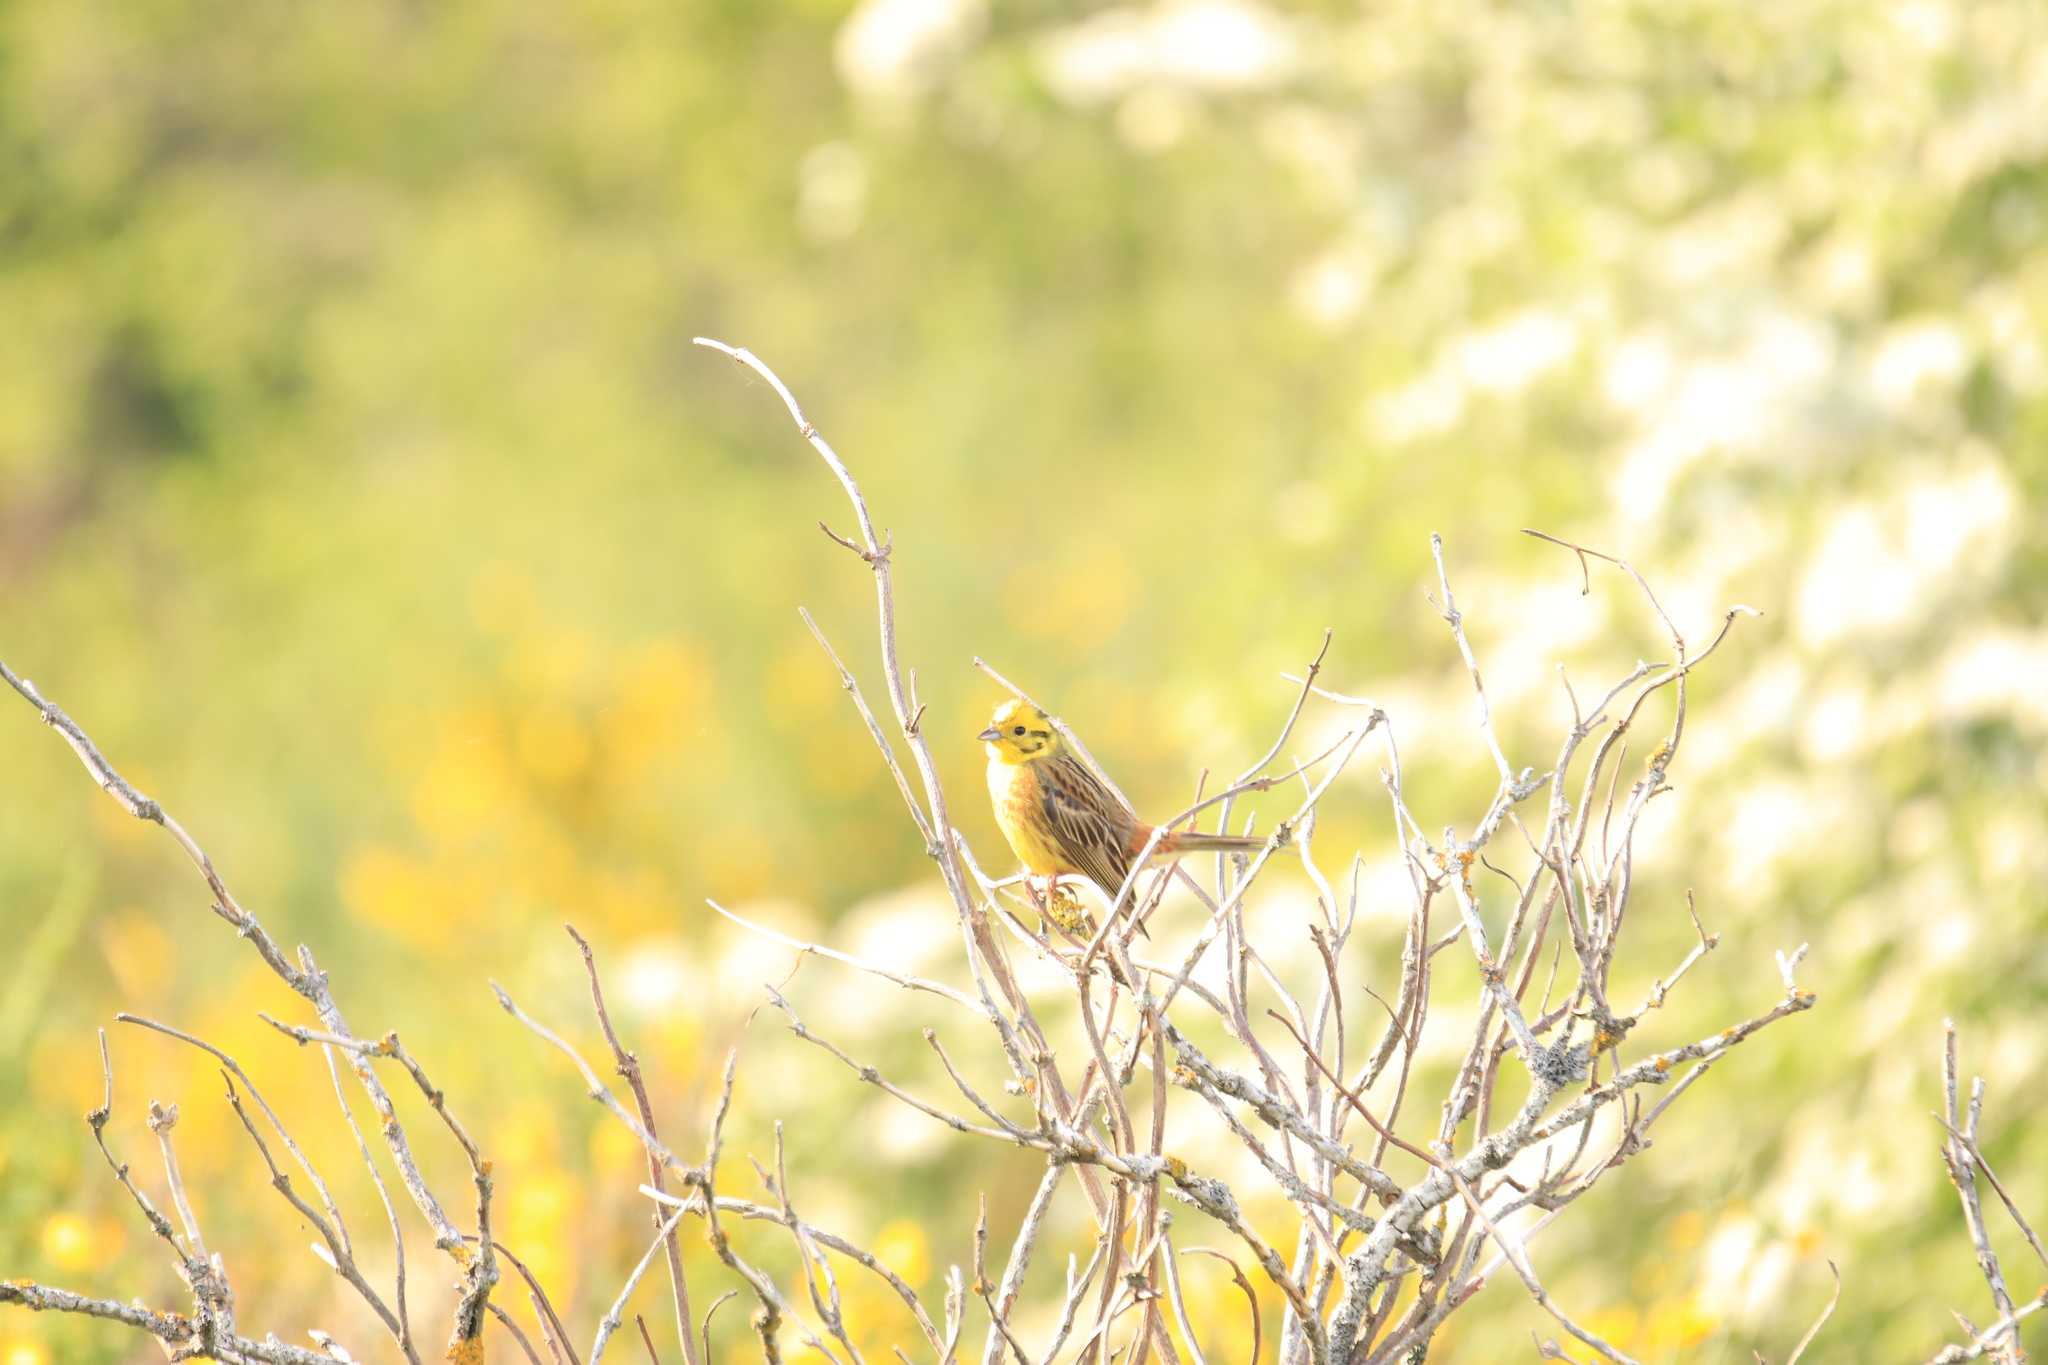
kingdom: Animalia
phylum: Chordata
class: Aves
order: Passeriformes
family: Emberizidae
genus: Emberiza
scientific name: Emberiza citrinella
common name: Yellowhammer
